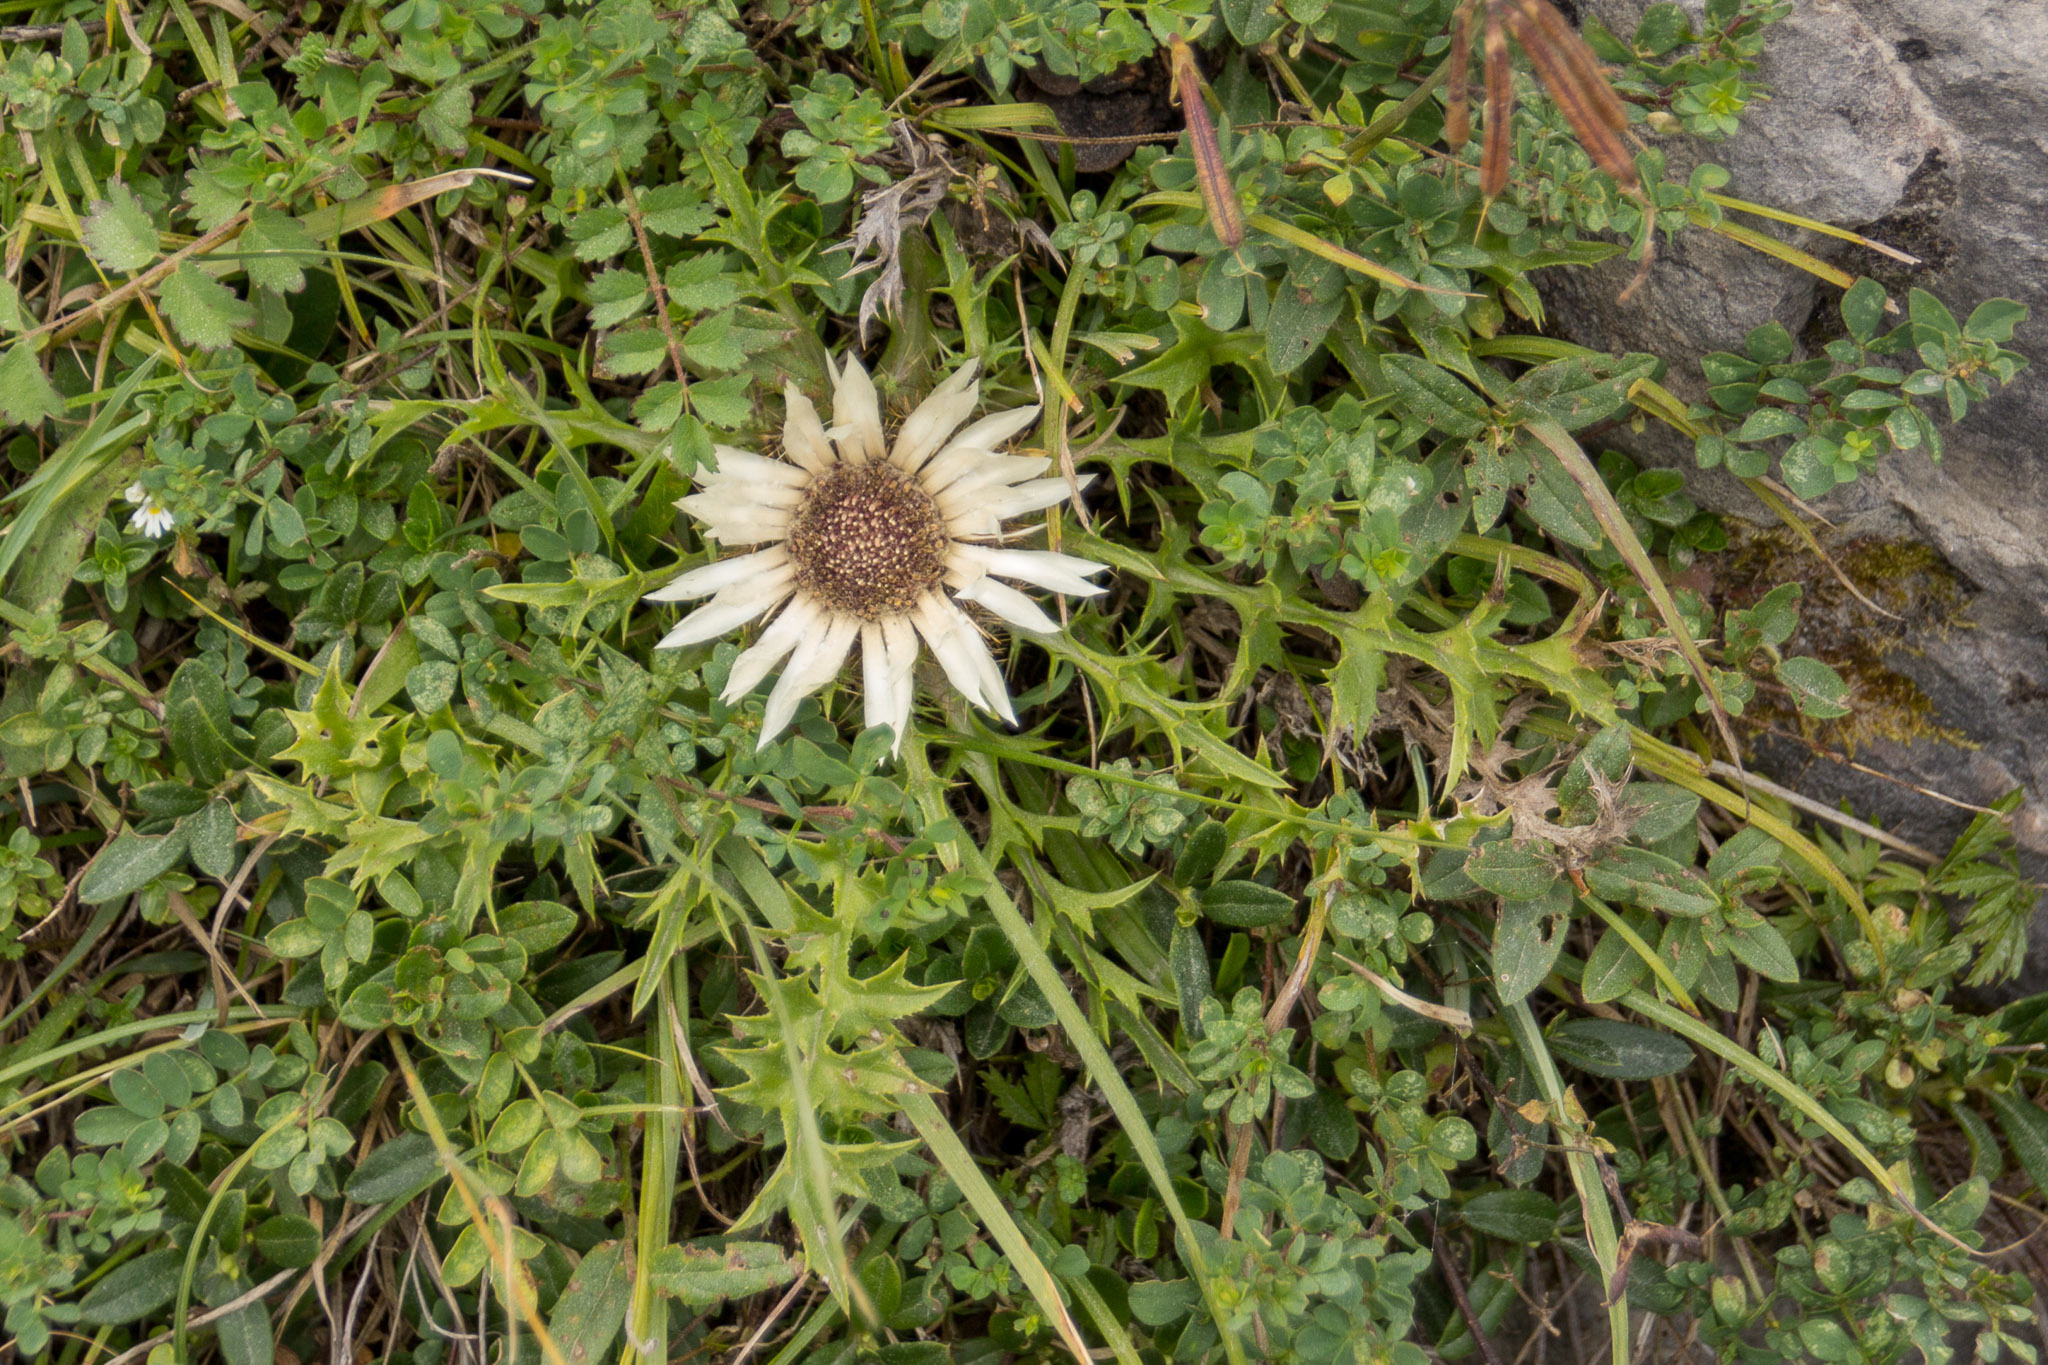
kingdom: Plantae
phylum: Tracheophyta
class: Magnoliopsida
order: Asterales
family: Asteraceae
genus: Carlina
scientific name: Carlina acaulis
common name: Stemless carline thistle
